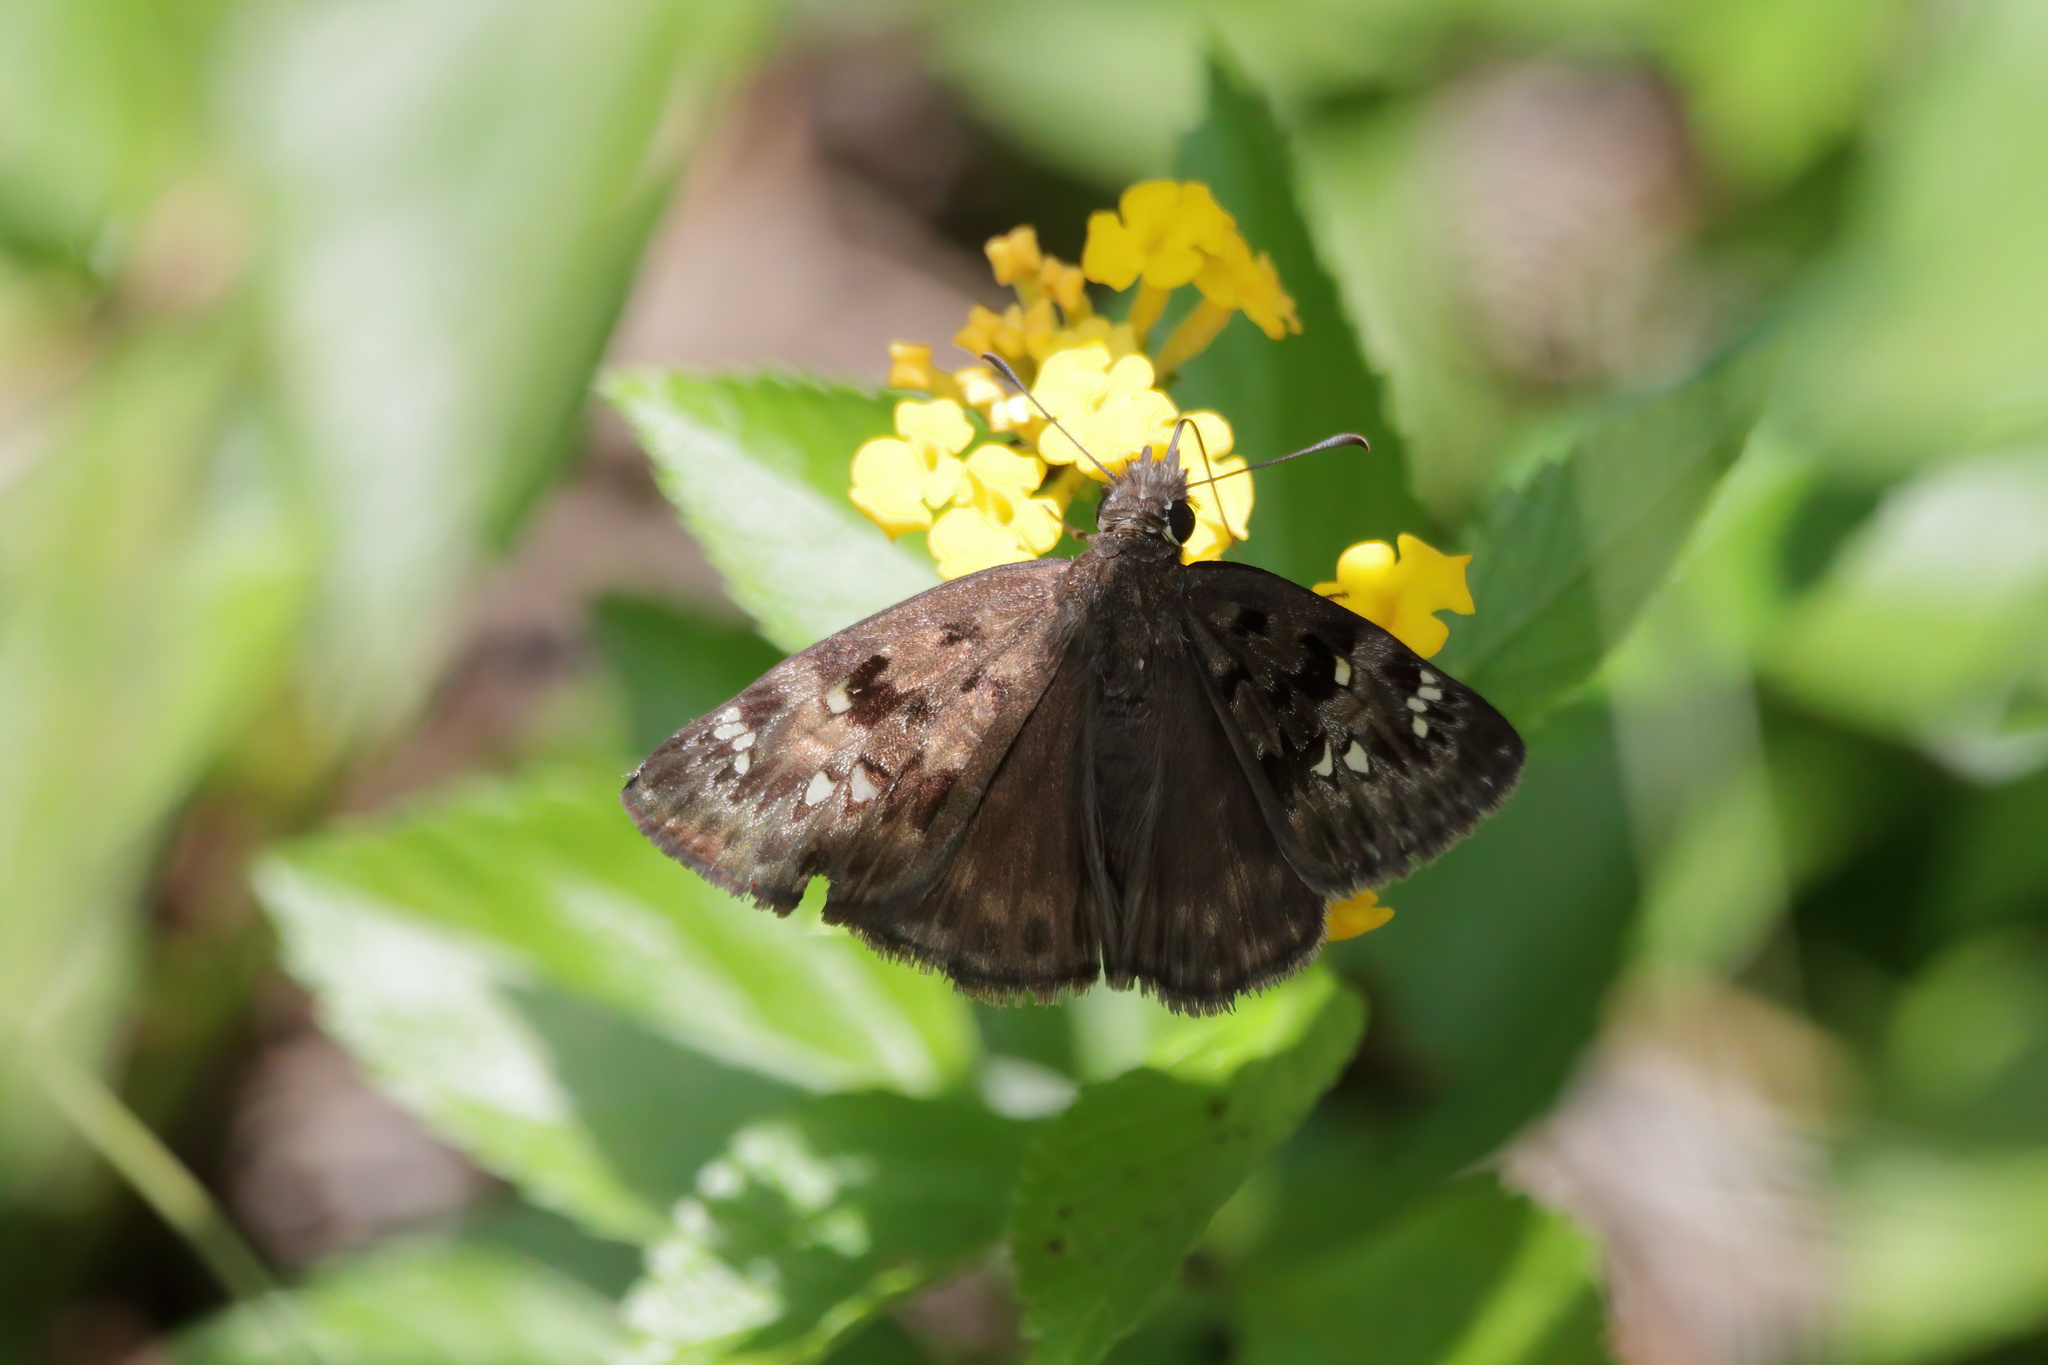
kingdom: Animalia
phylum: Arthropoda
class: Insecta
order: Lepidoptera
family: Hesperiidae
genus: Erynnis
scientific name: Erynnis horatius
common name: Horace's duskywing
